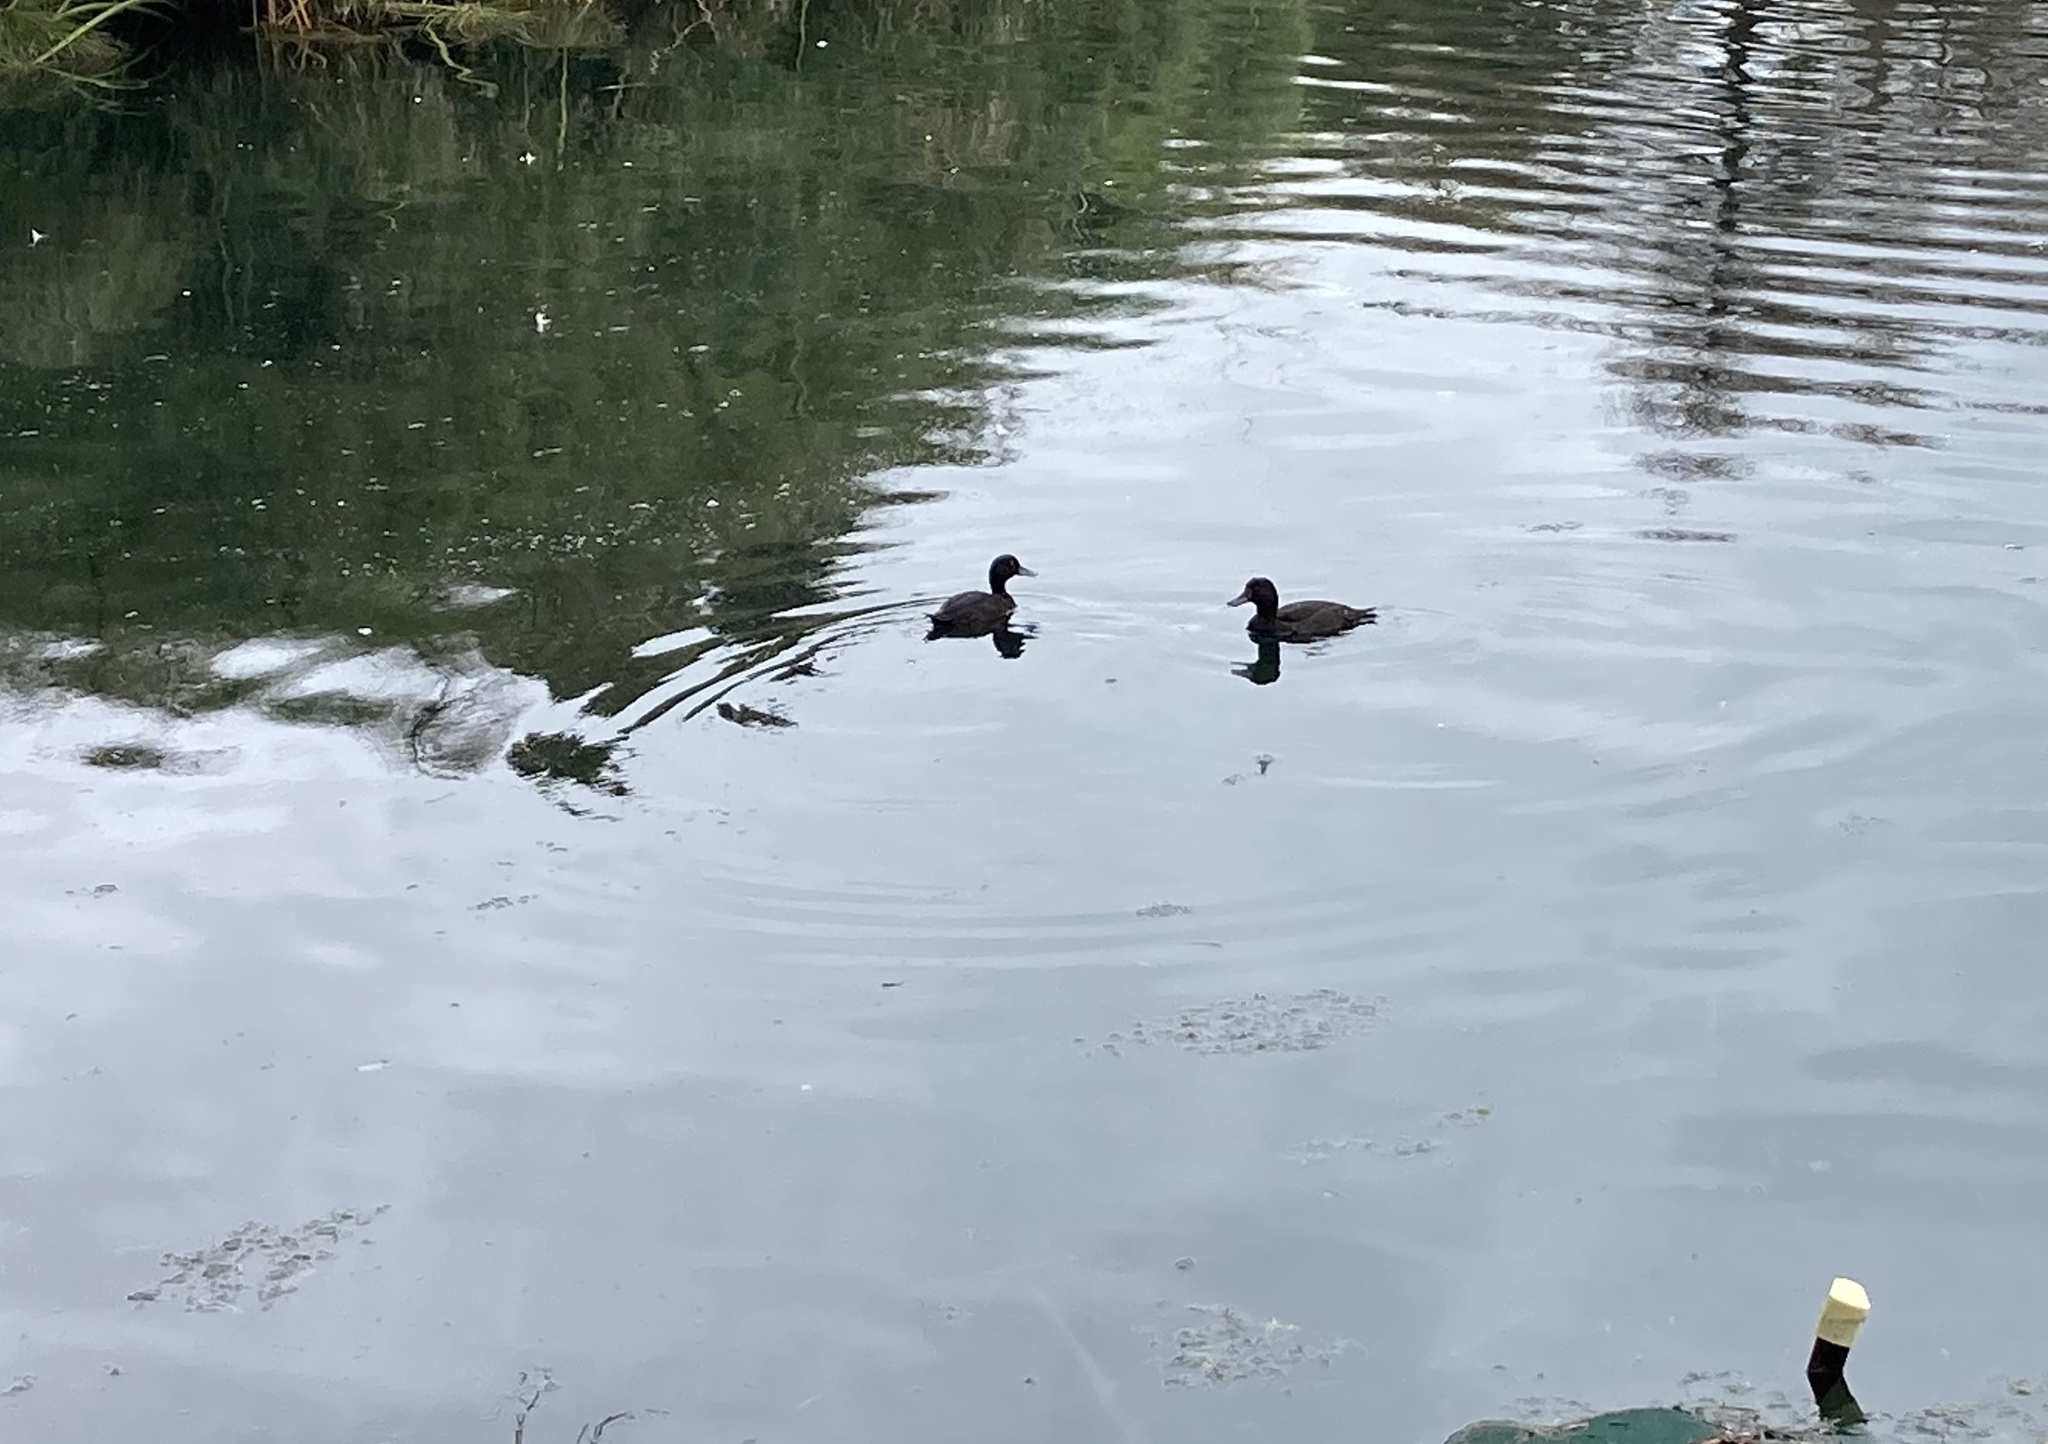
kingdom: Animalia
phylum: Chordata
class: Aves
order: Anseriformes
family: Anatidae
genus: Aythya
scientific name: Aythya novaeseelandiae
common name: New zealand scaup
